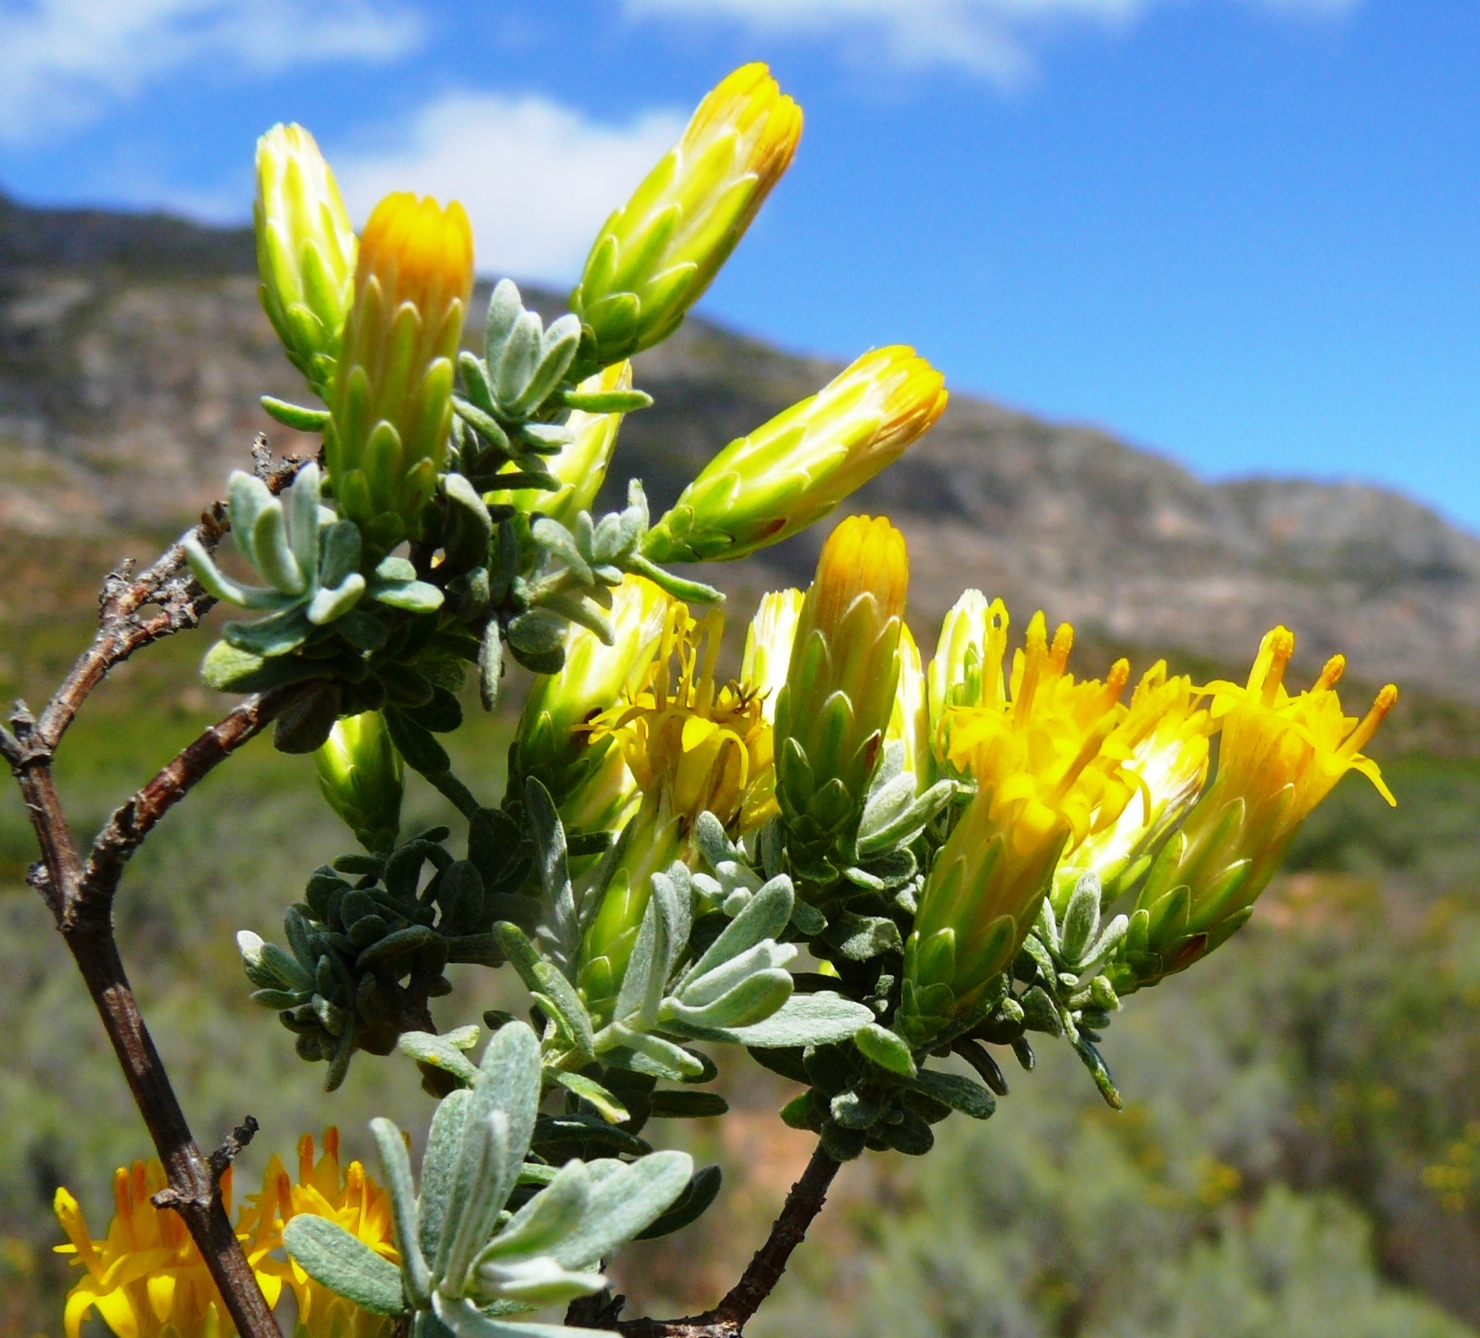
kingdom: Plantae
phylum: Tracheophyta
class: Magnoliopsida
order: Asterales
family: Asteraceae
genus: Pteronia
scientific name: Pteronia incana
